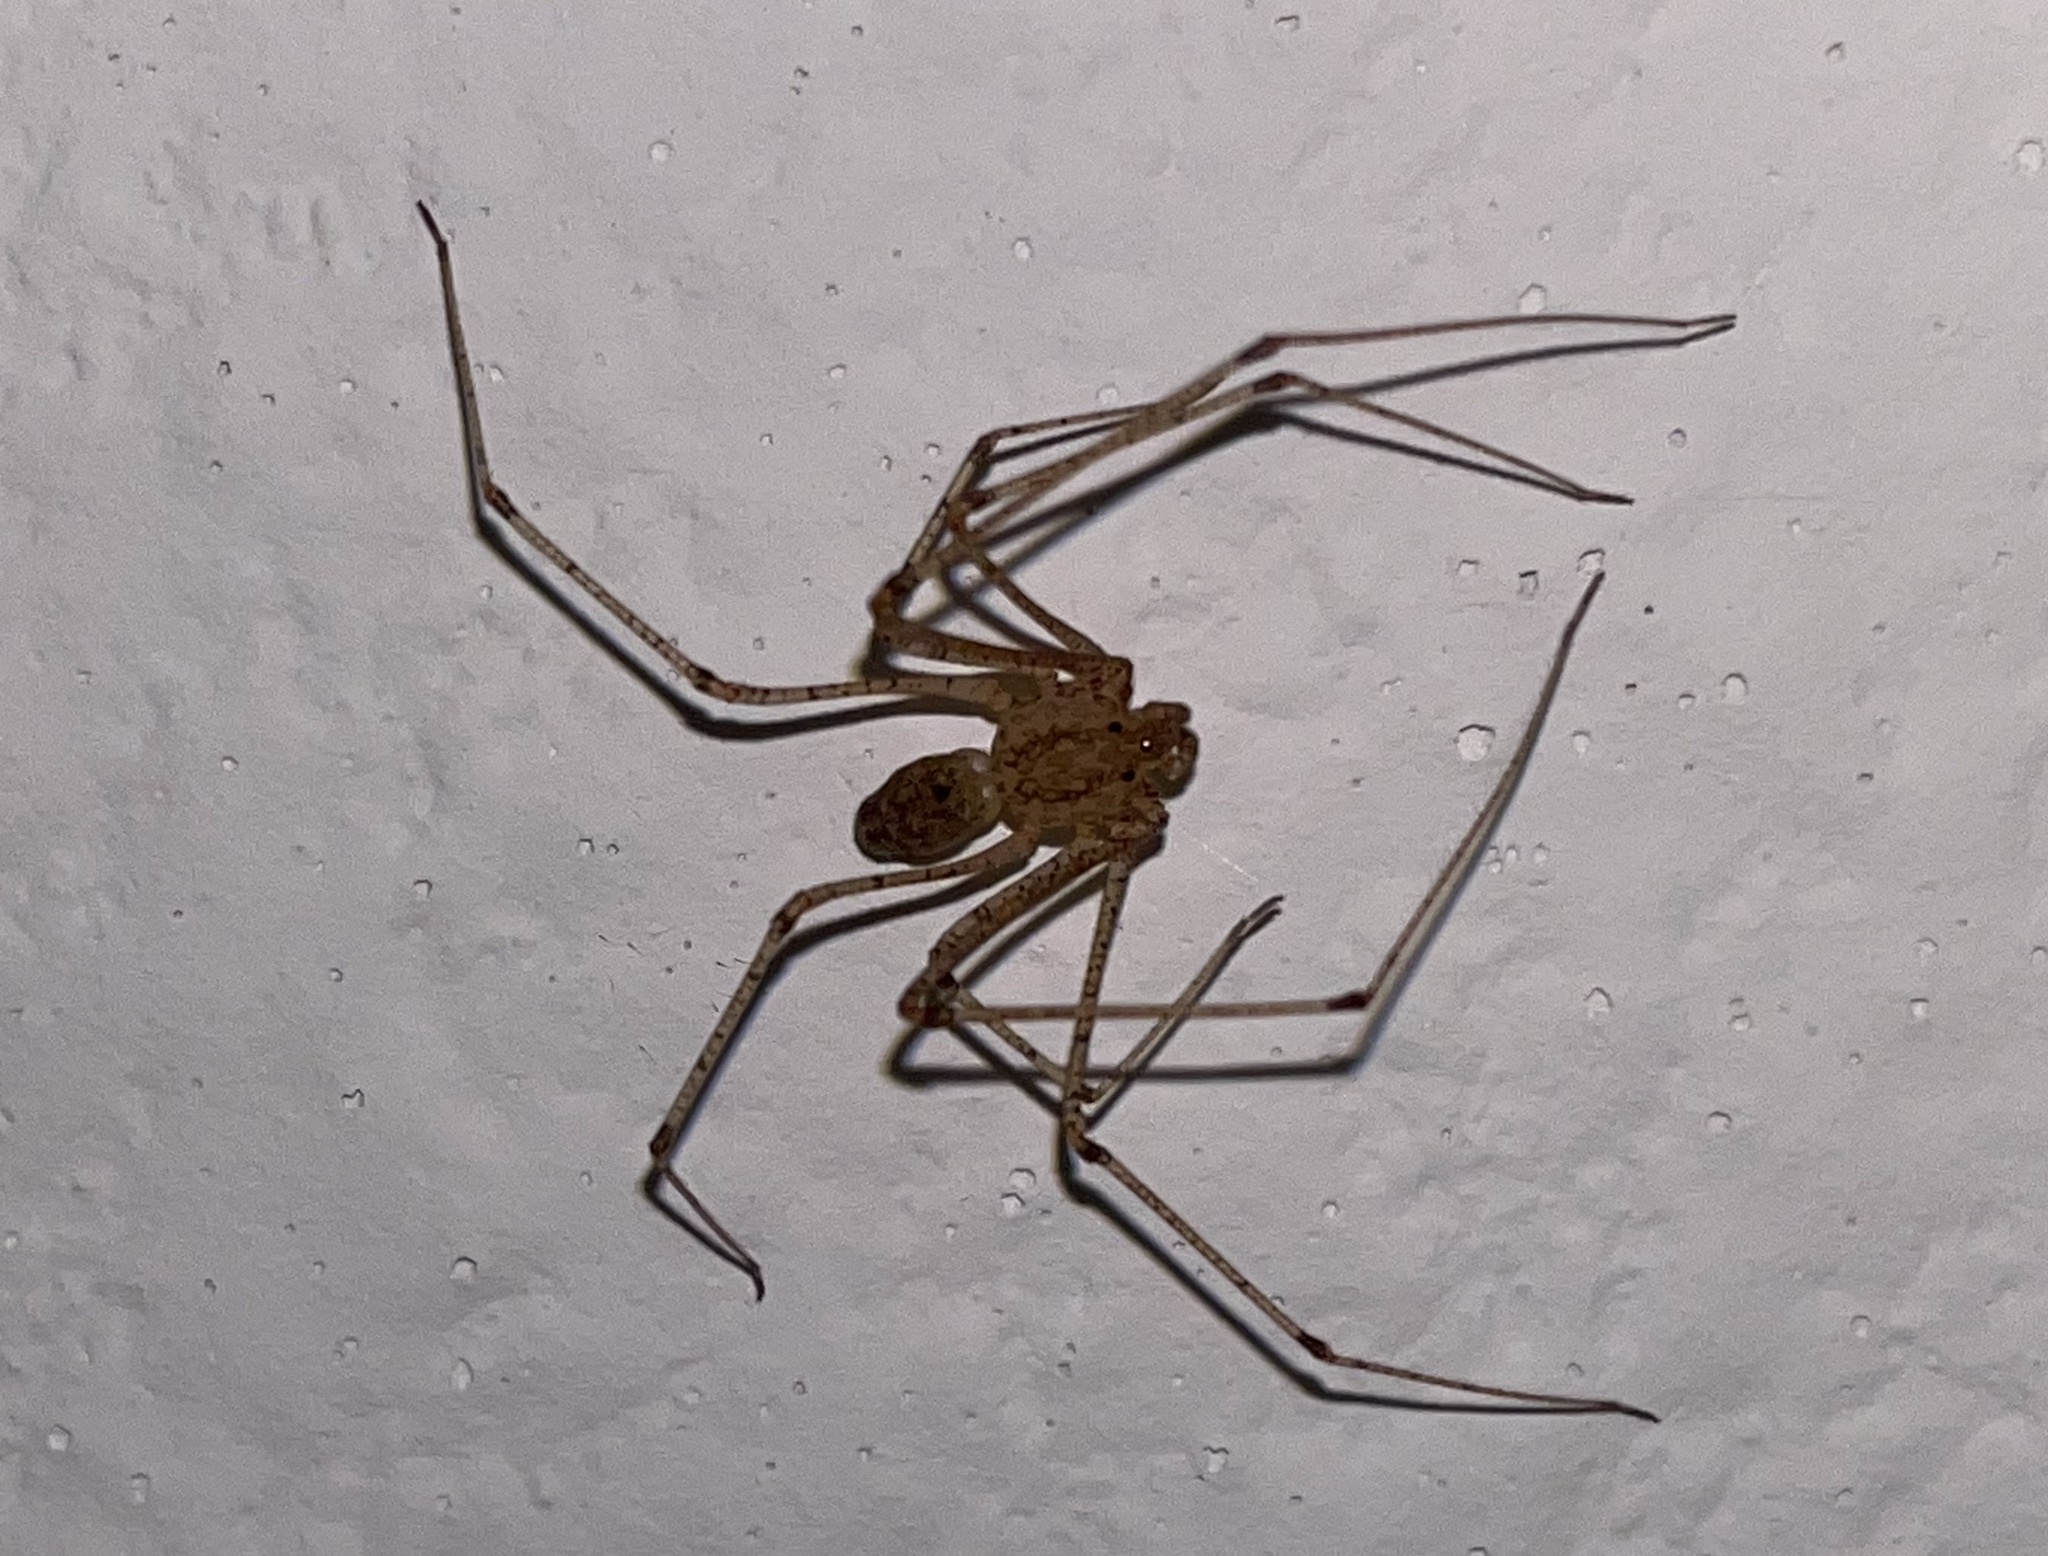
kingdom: Animalia
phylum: Arthropoda
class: Arachnida
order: Araneae
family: Scytodidae
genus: Scytodes
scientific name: Scytodes atlacoya
